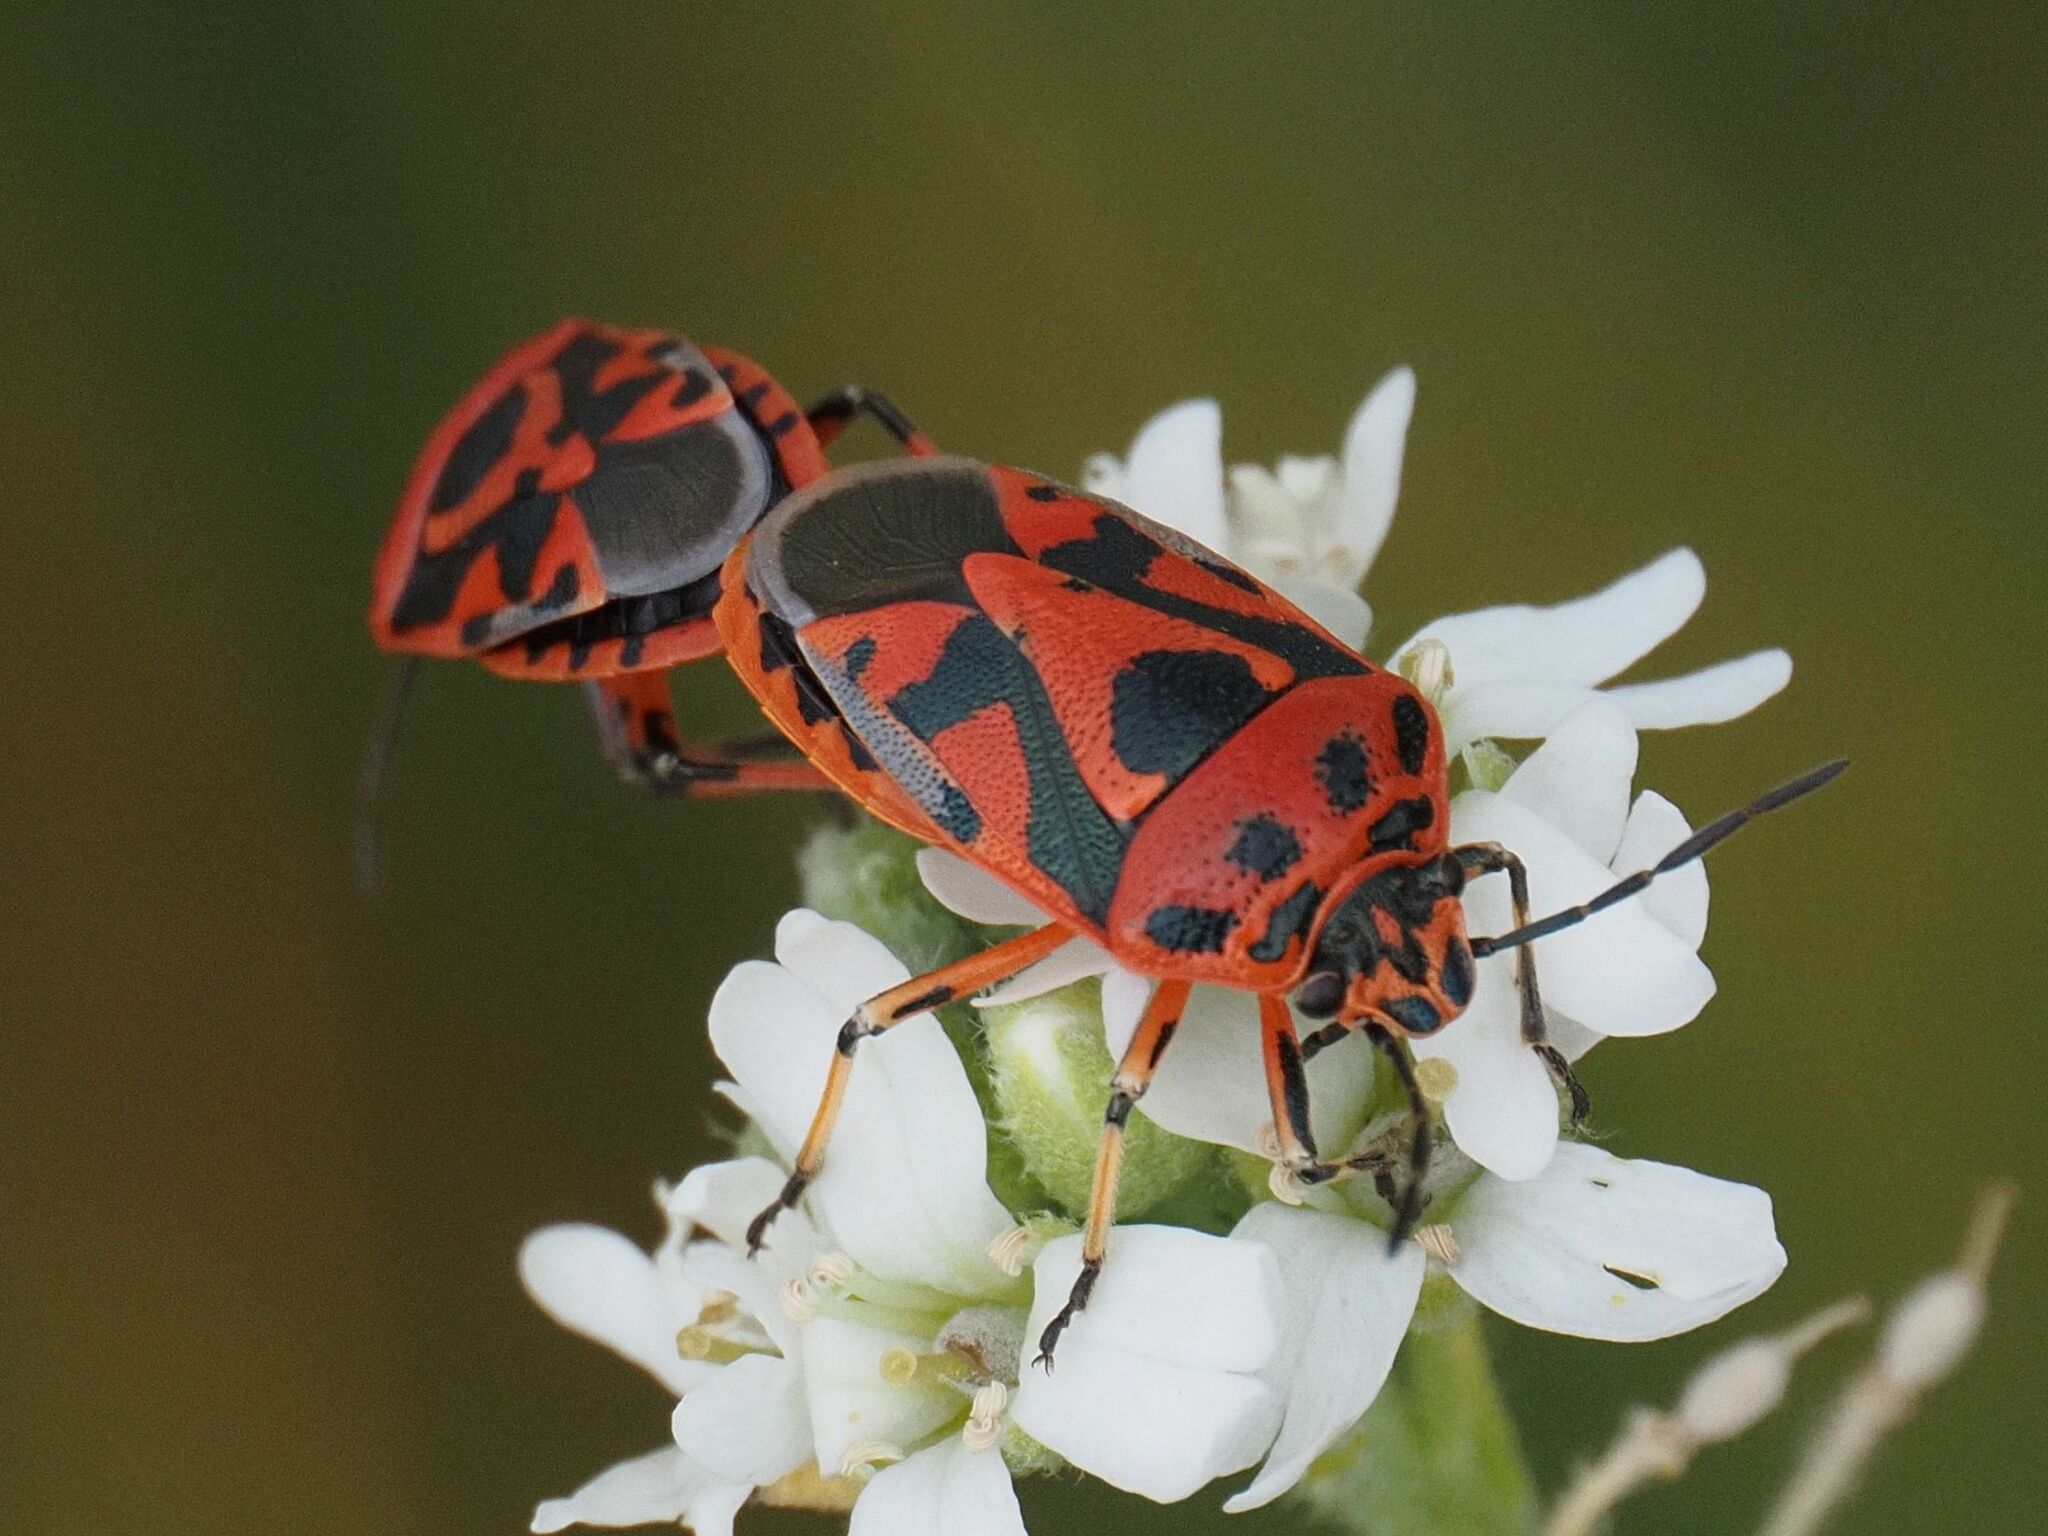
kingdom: Animalia
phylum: Arthropoda
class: Insecta
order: Hemiptera
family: Pentatomidae
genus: Eurydema
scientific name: Eurydema ornata
